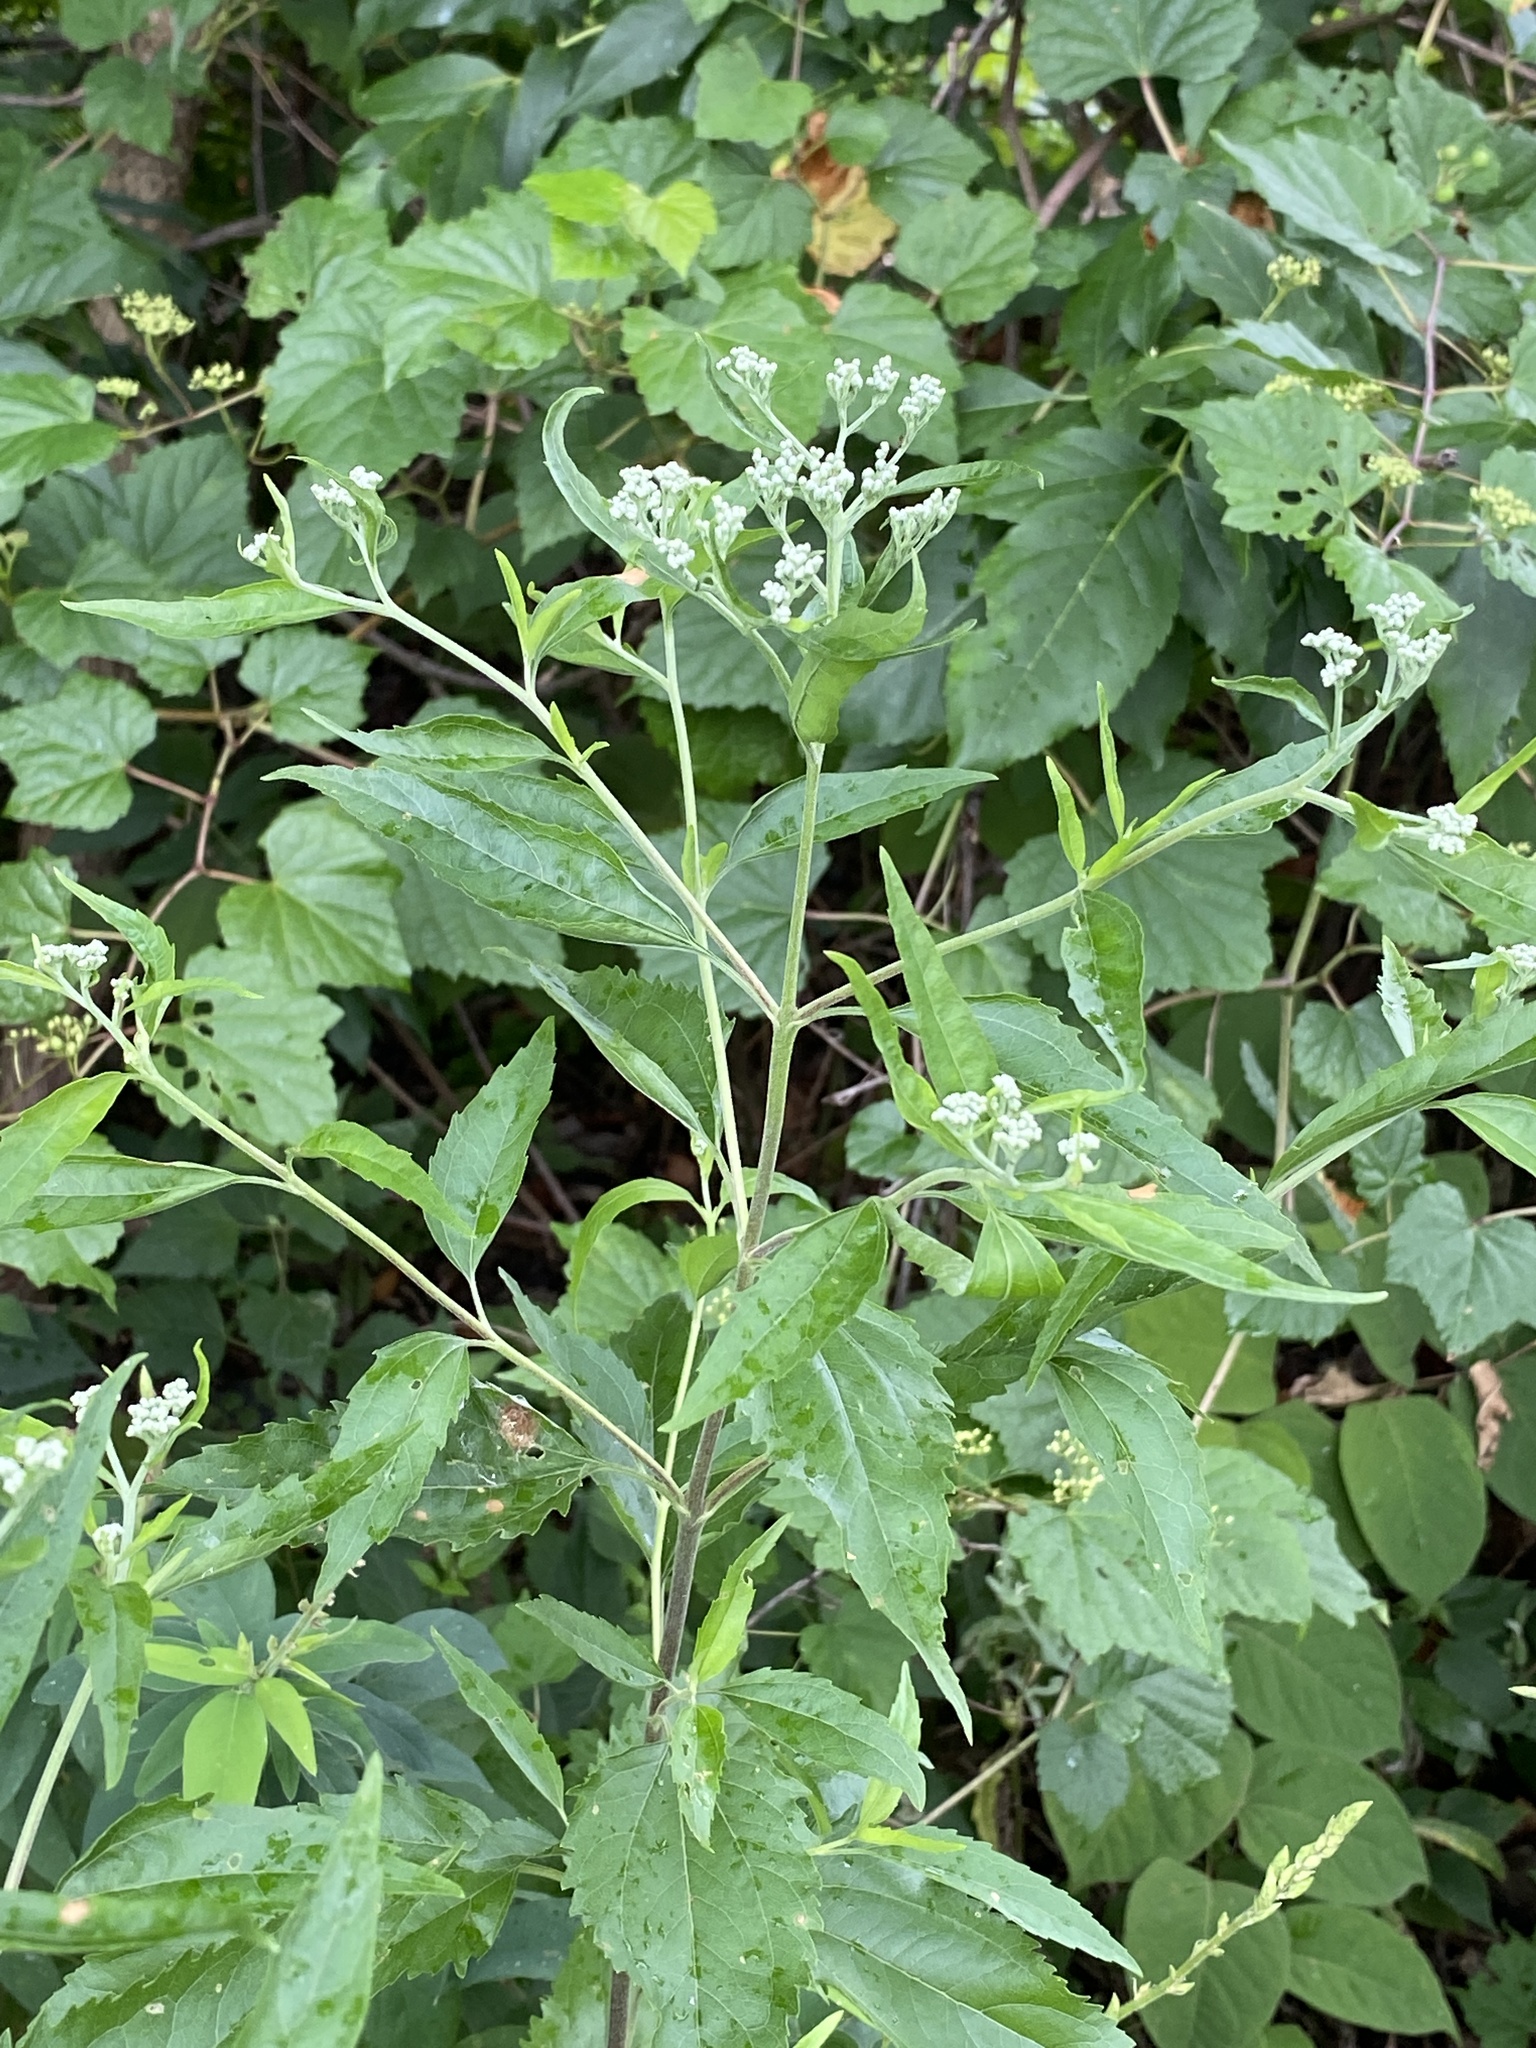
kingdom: Plantae
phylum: Tracheophyta
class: Magnoliopsida
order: Asterales
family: Asteraceae
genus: Eupatorium
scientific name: Eupatorium serotinum
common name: Late boneset
